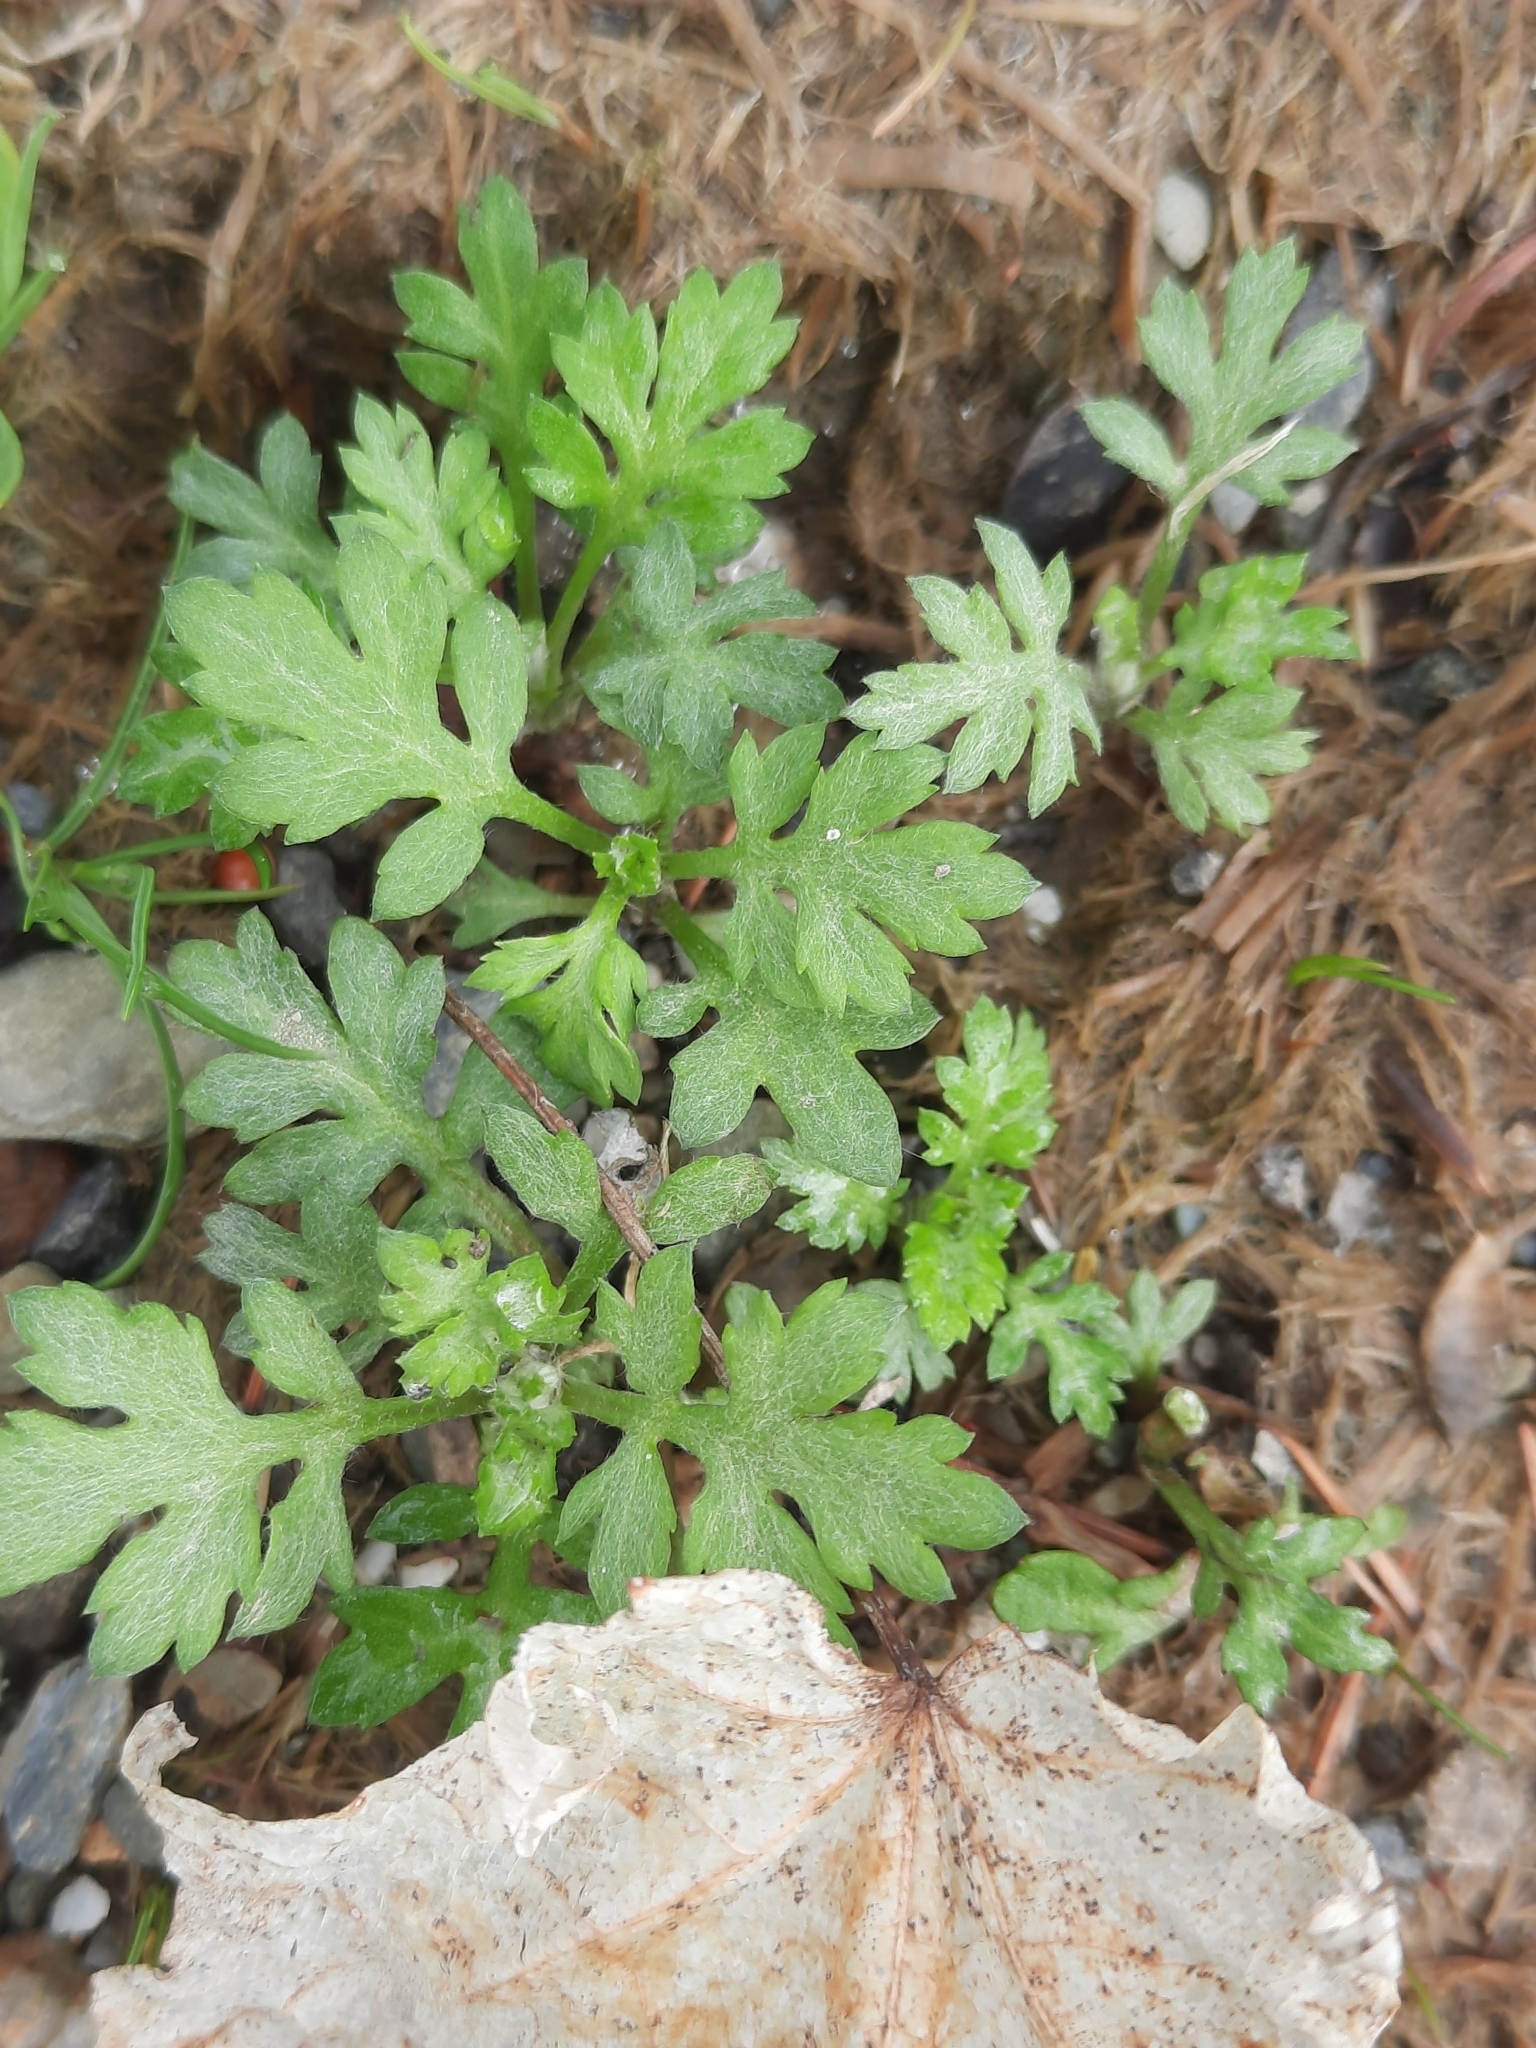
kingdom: Plantae
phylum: Tracheophyta
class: Magnoliopsida
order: Asterales
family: Asteraceae
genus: Artemisia
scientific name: Artemisia vulgaris
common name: Mugwort
